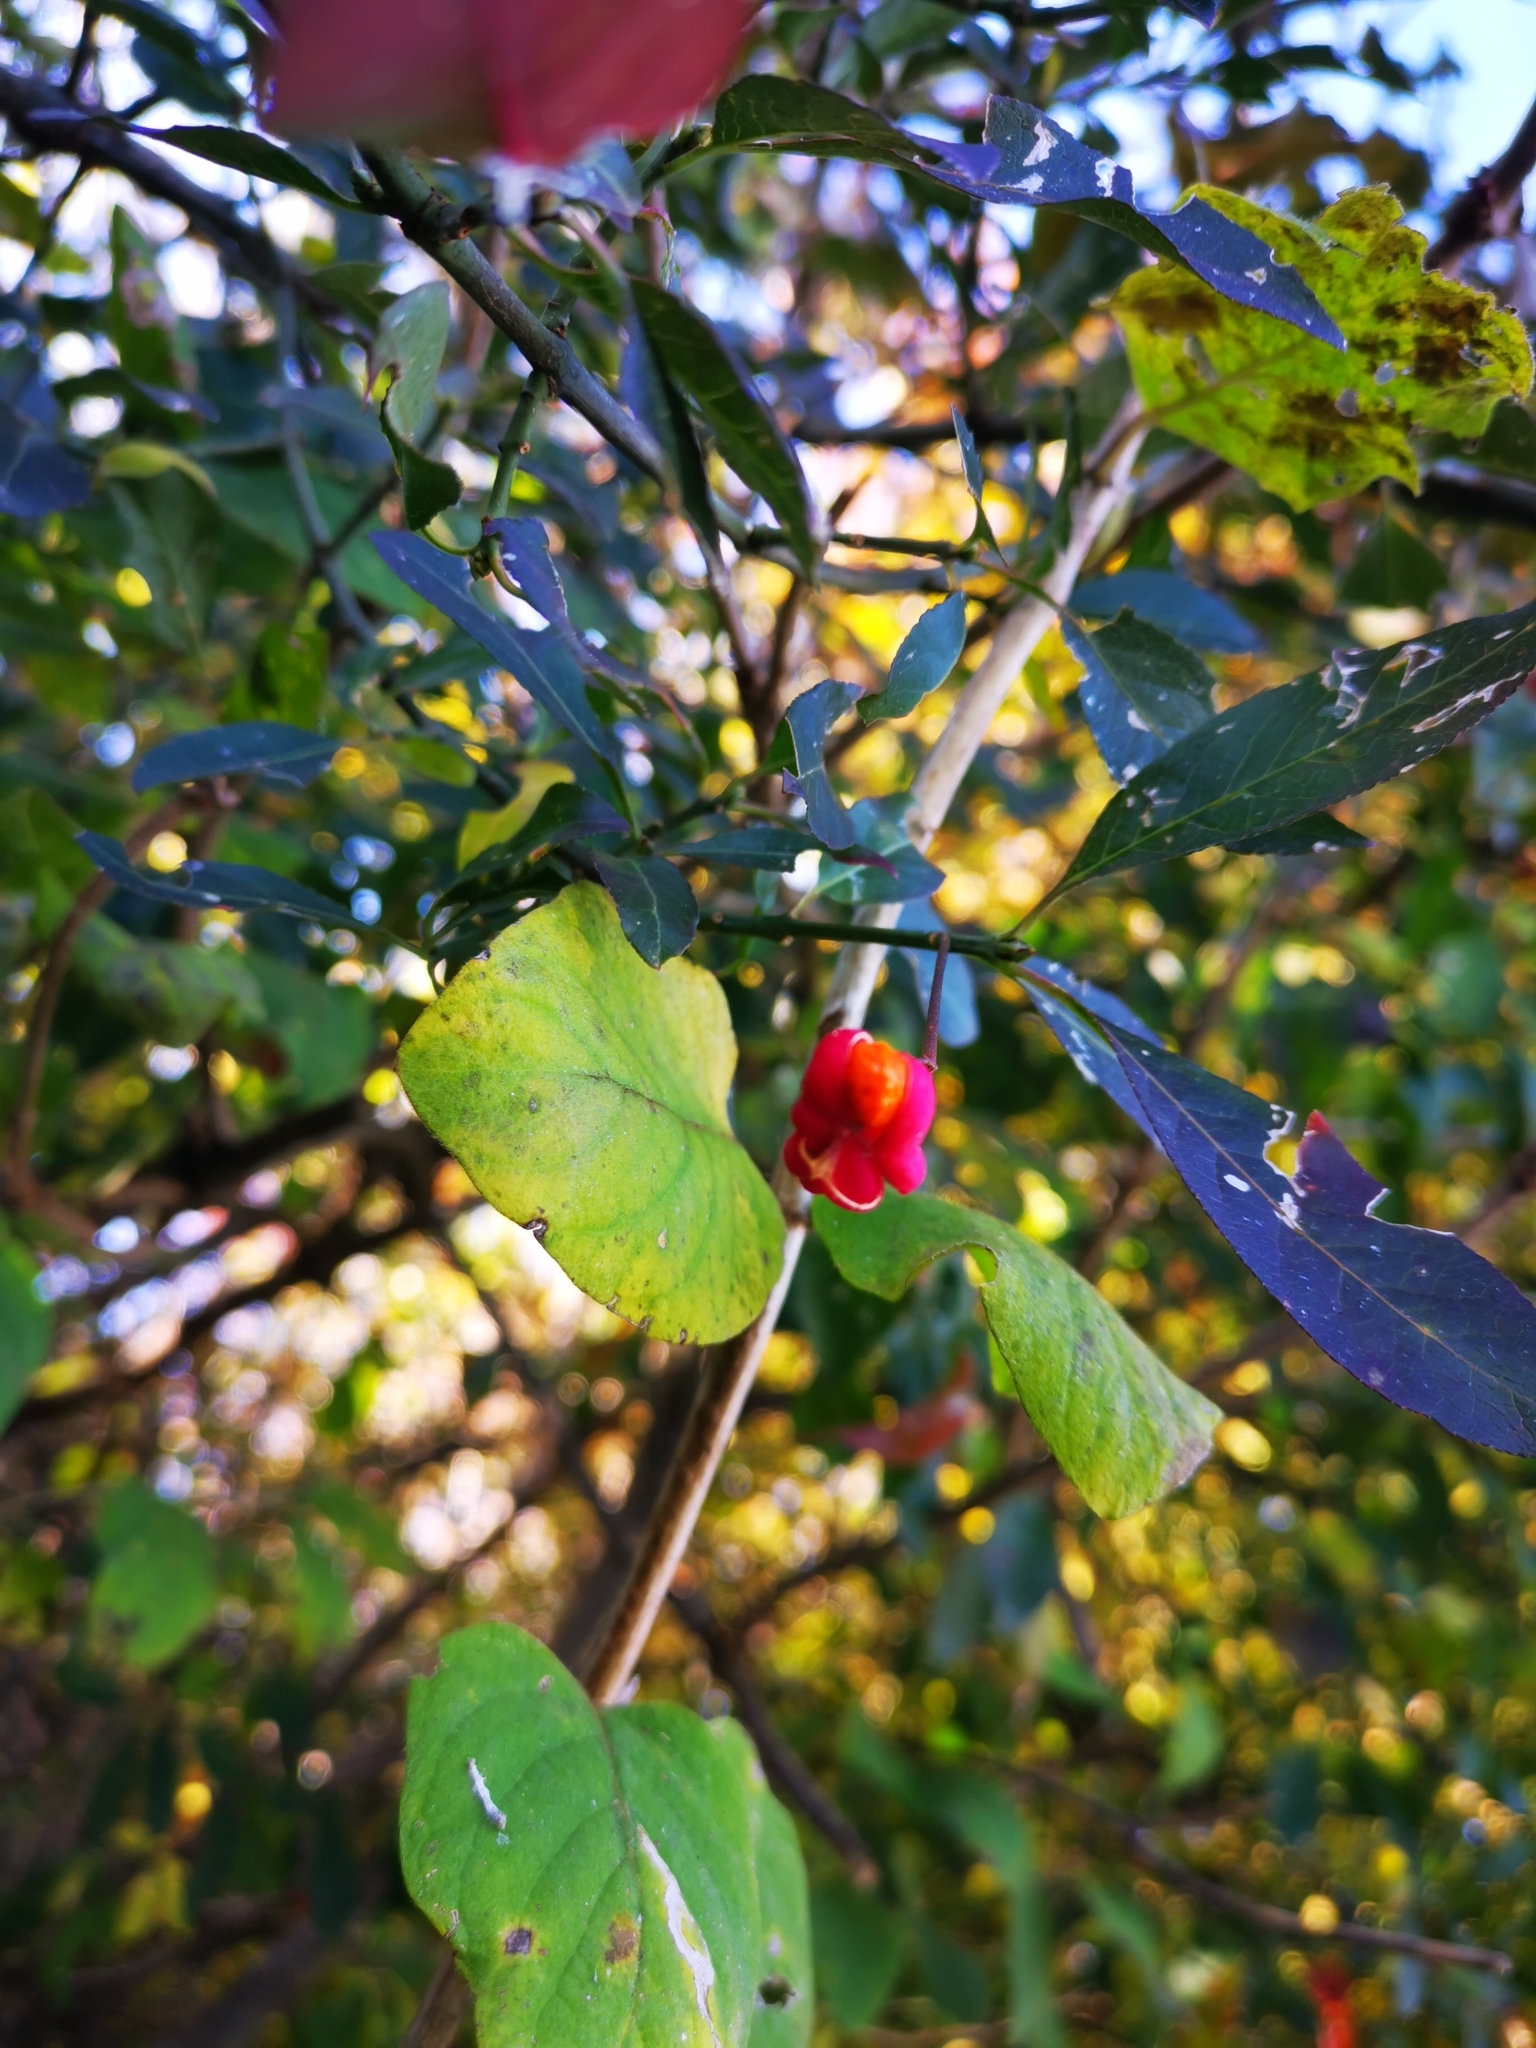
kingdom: Plantae
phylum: Tracheophyta
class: Magnoliopsida
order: Celastrales
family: Celastraceae
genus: Euonymus
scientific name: Euonymus europaeus
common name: Spindle
